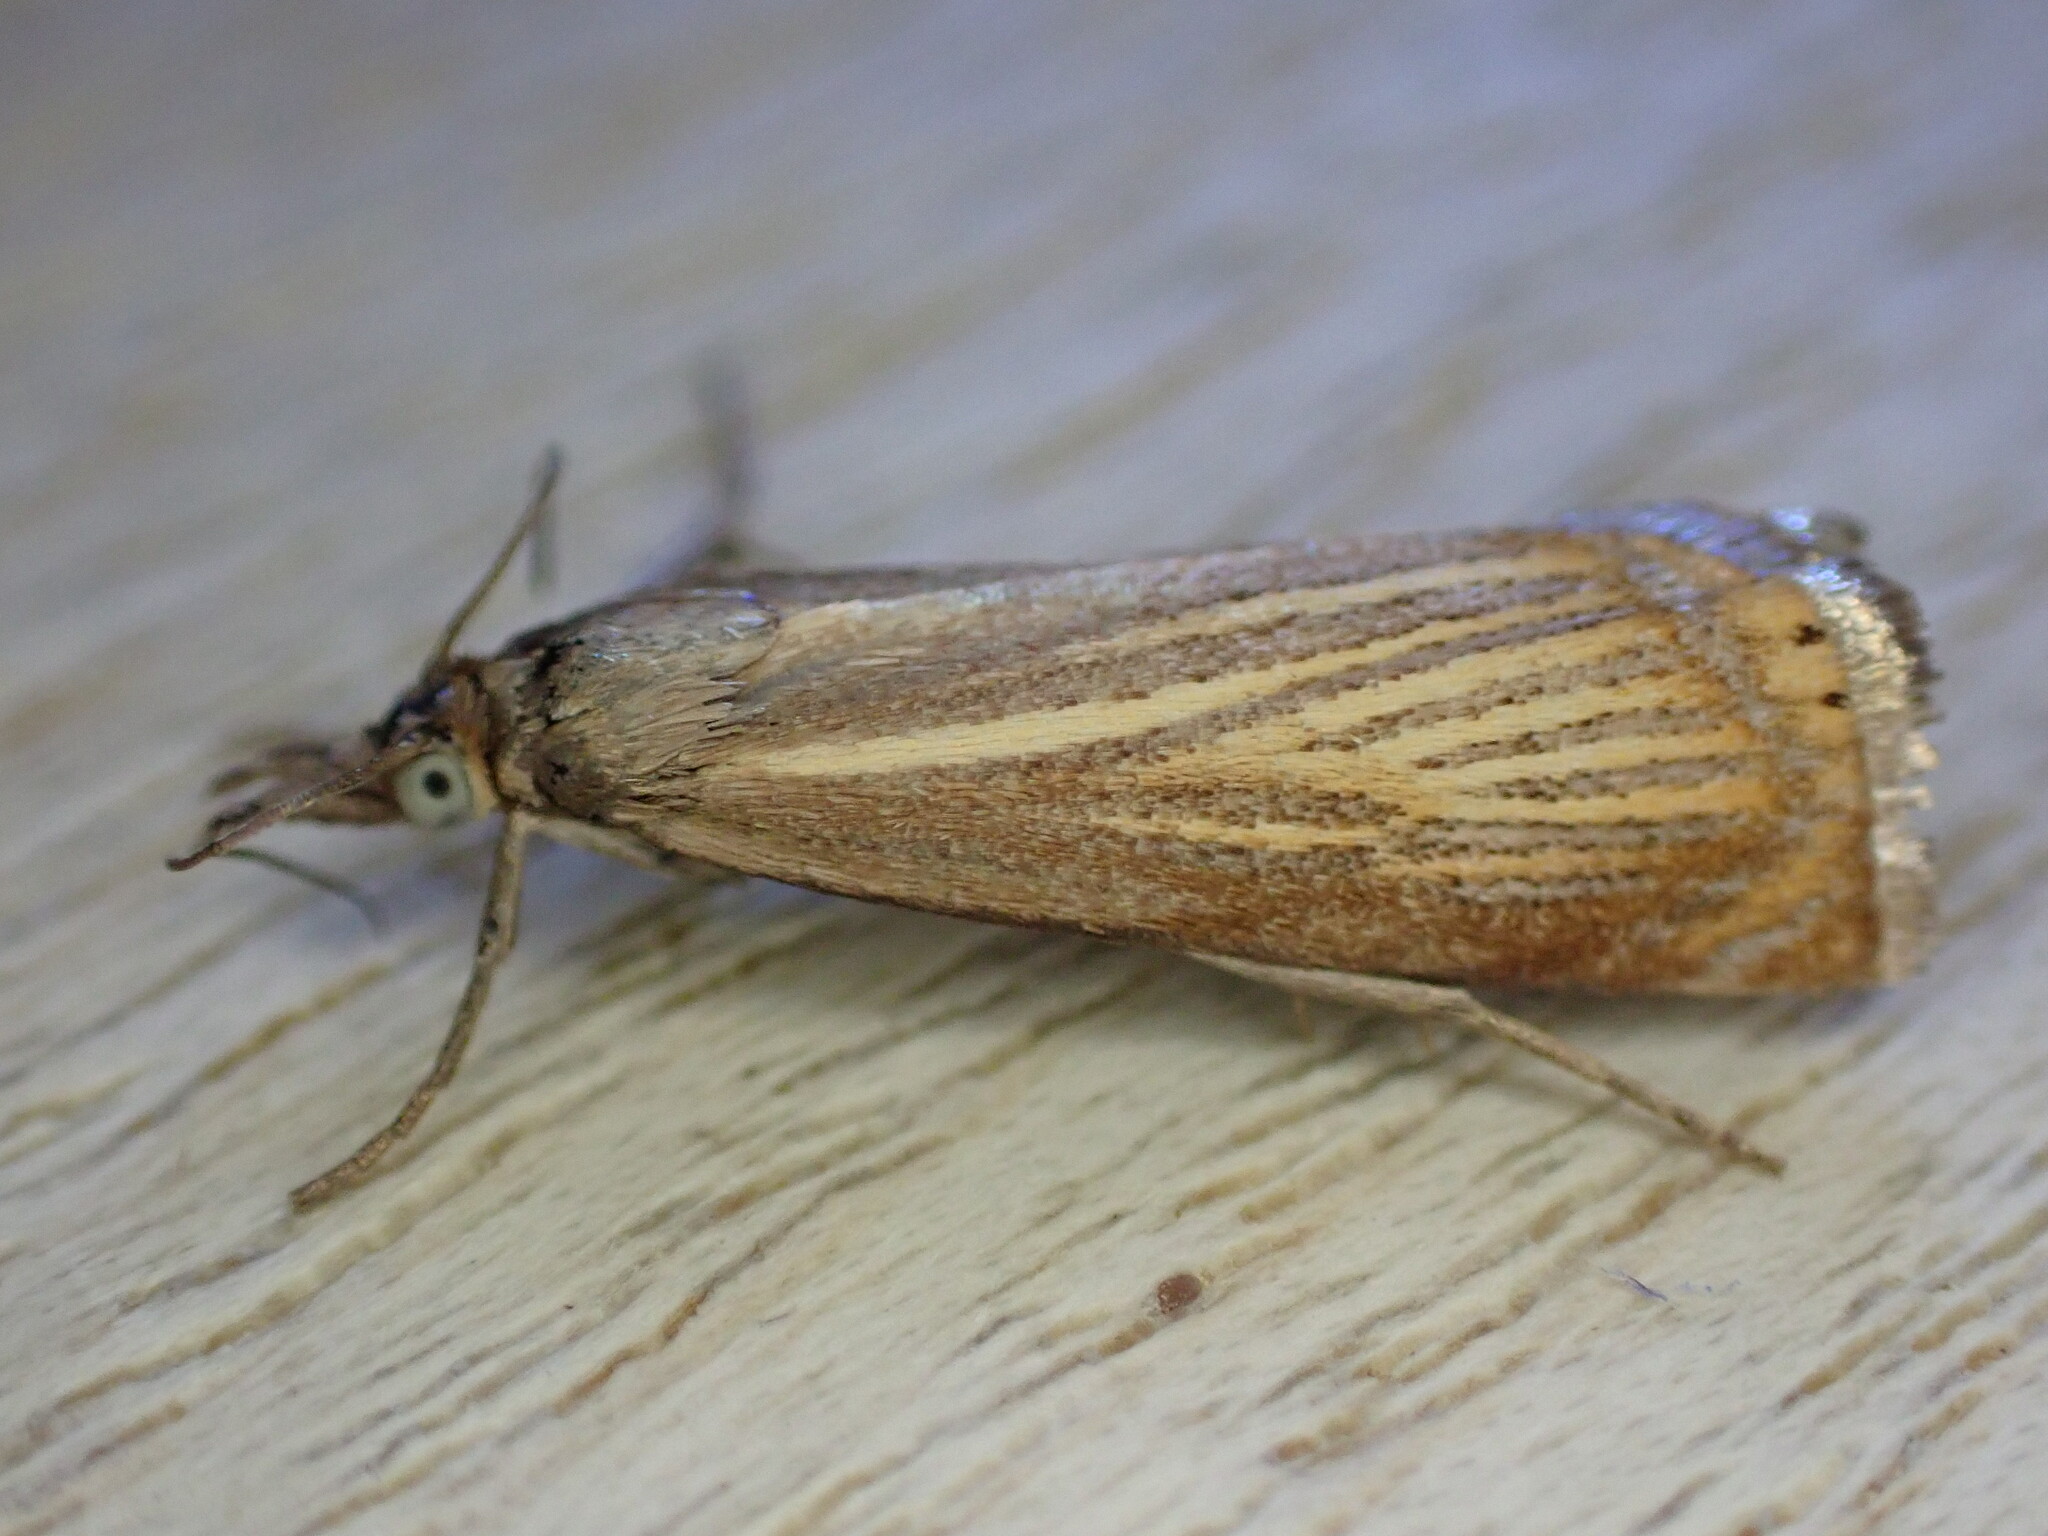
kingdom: Animalia
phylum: Arthropoda
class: Insecta
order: Lepidoptera
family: Crambidae
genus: Chrysoteuchia
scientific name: Chrysoteuchia culmella
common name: Garden grass-veneer
